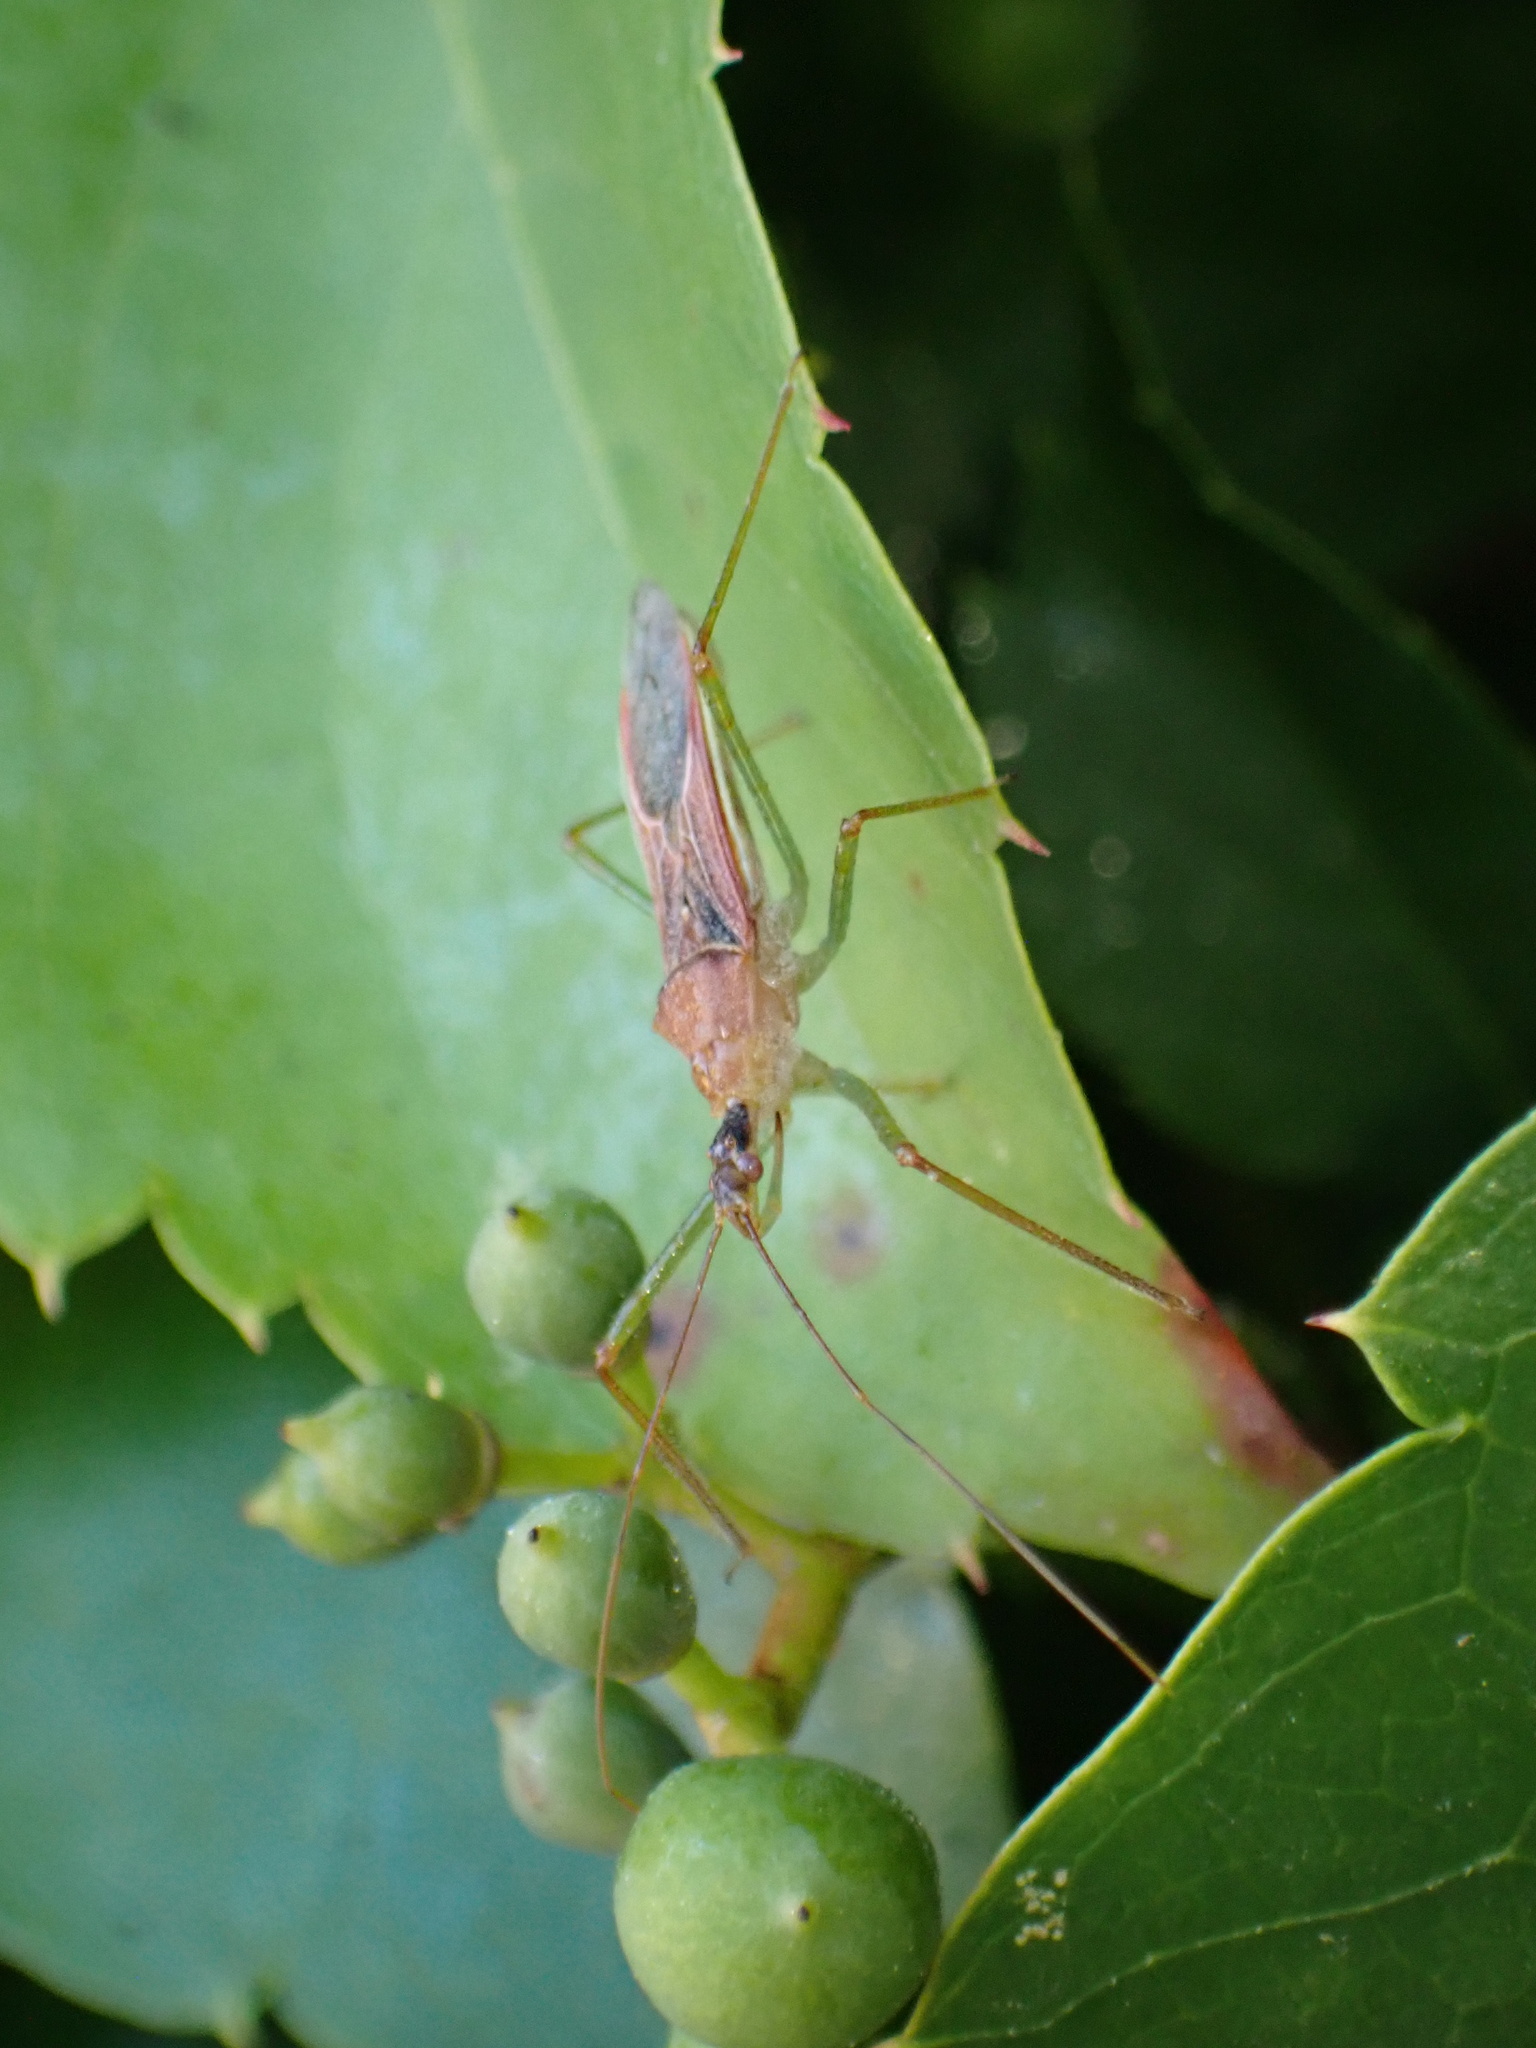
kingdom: Animalia
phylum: Arthropoda
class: Insecta
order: Hemiptera
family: Reduviidae
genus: Zelus
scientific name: Zelus renardii
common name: Assassin bug
